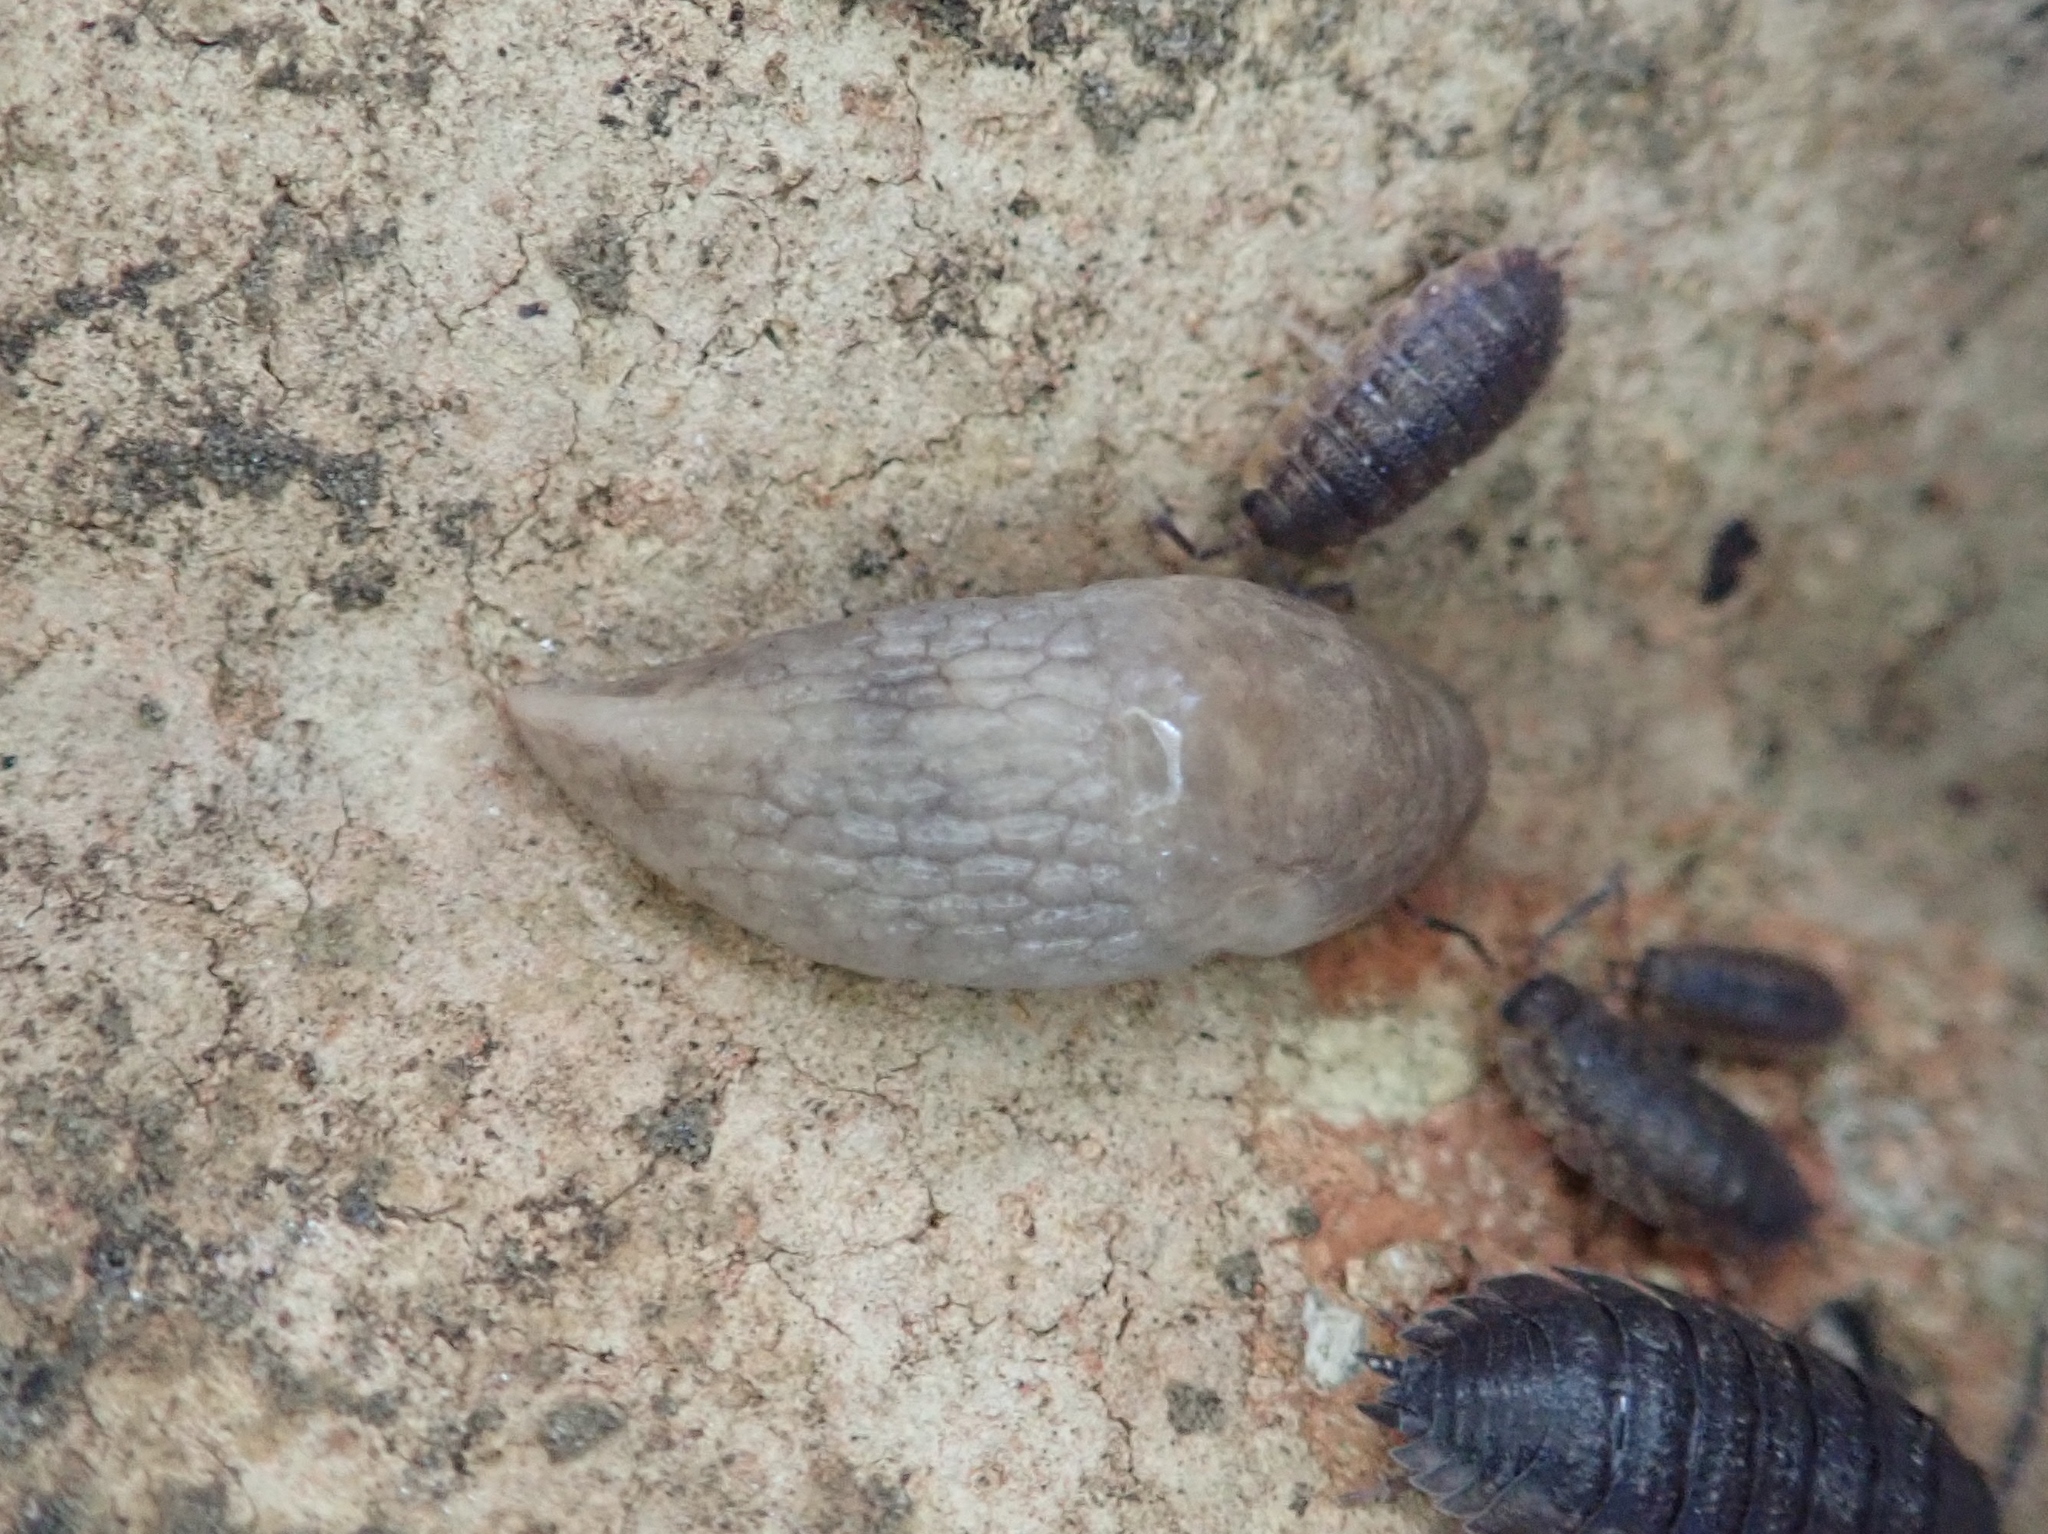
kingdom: Animalia
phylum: Mollusca
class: Gastropoda
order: Stylommatophora
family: Agriolimacidae
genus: Deroceras
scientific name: Deroceras reticulatum
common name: Gray field slug
